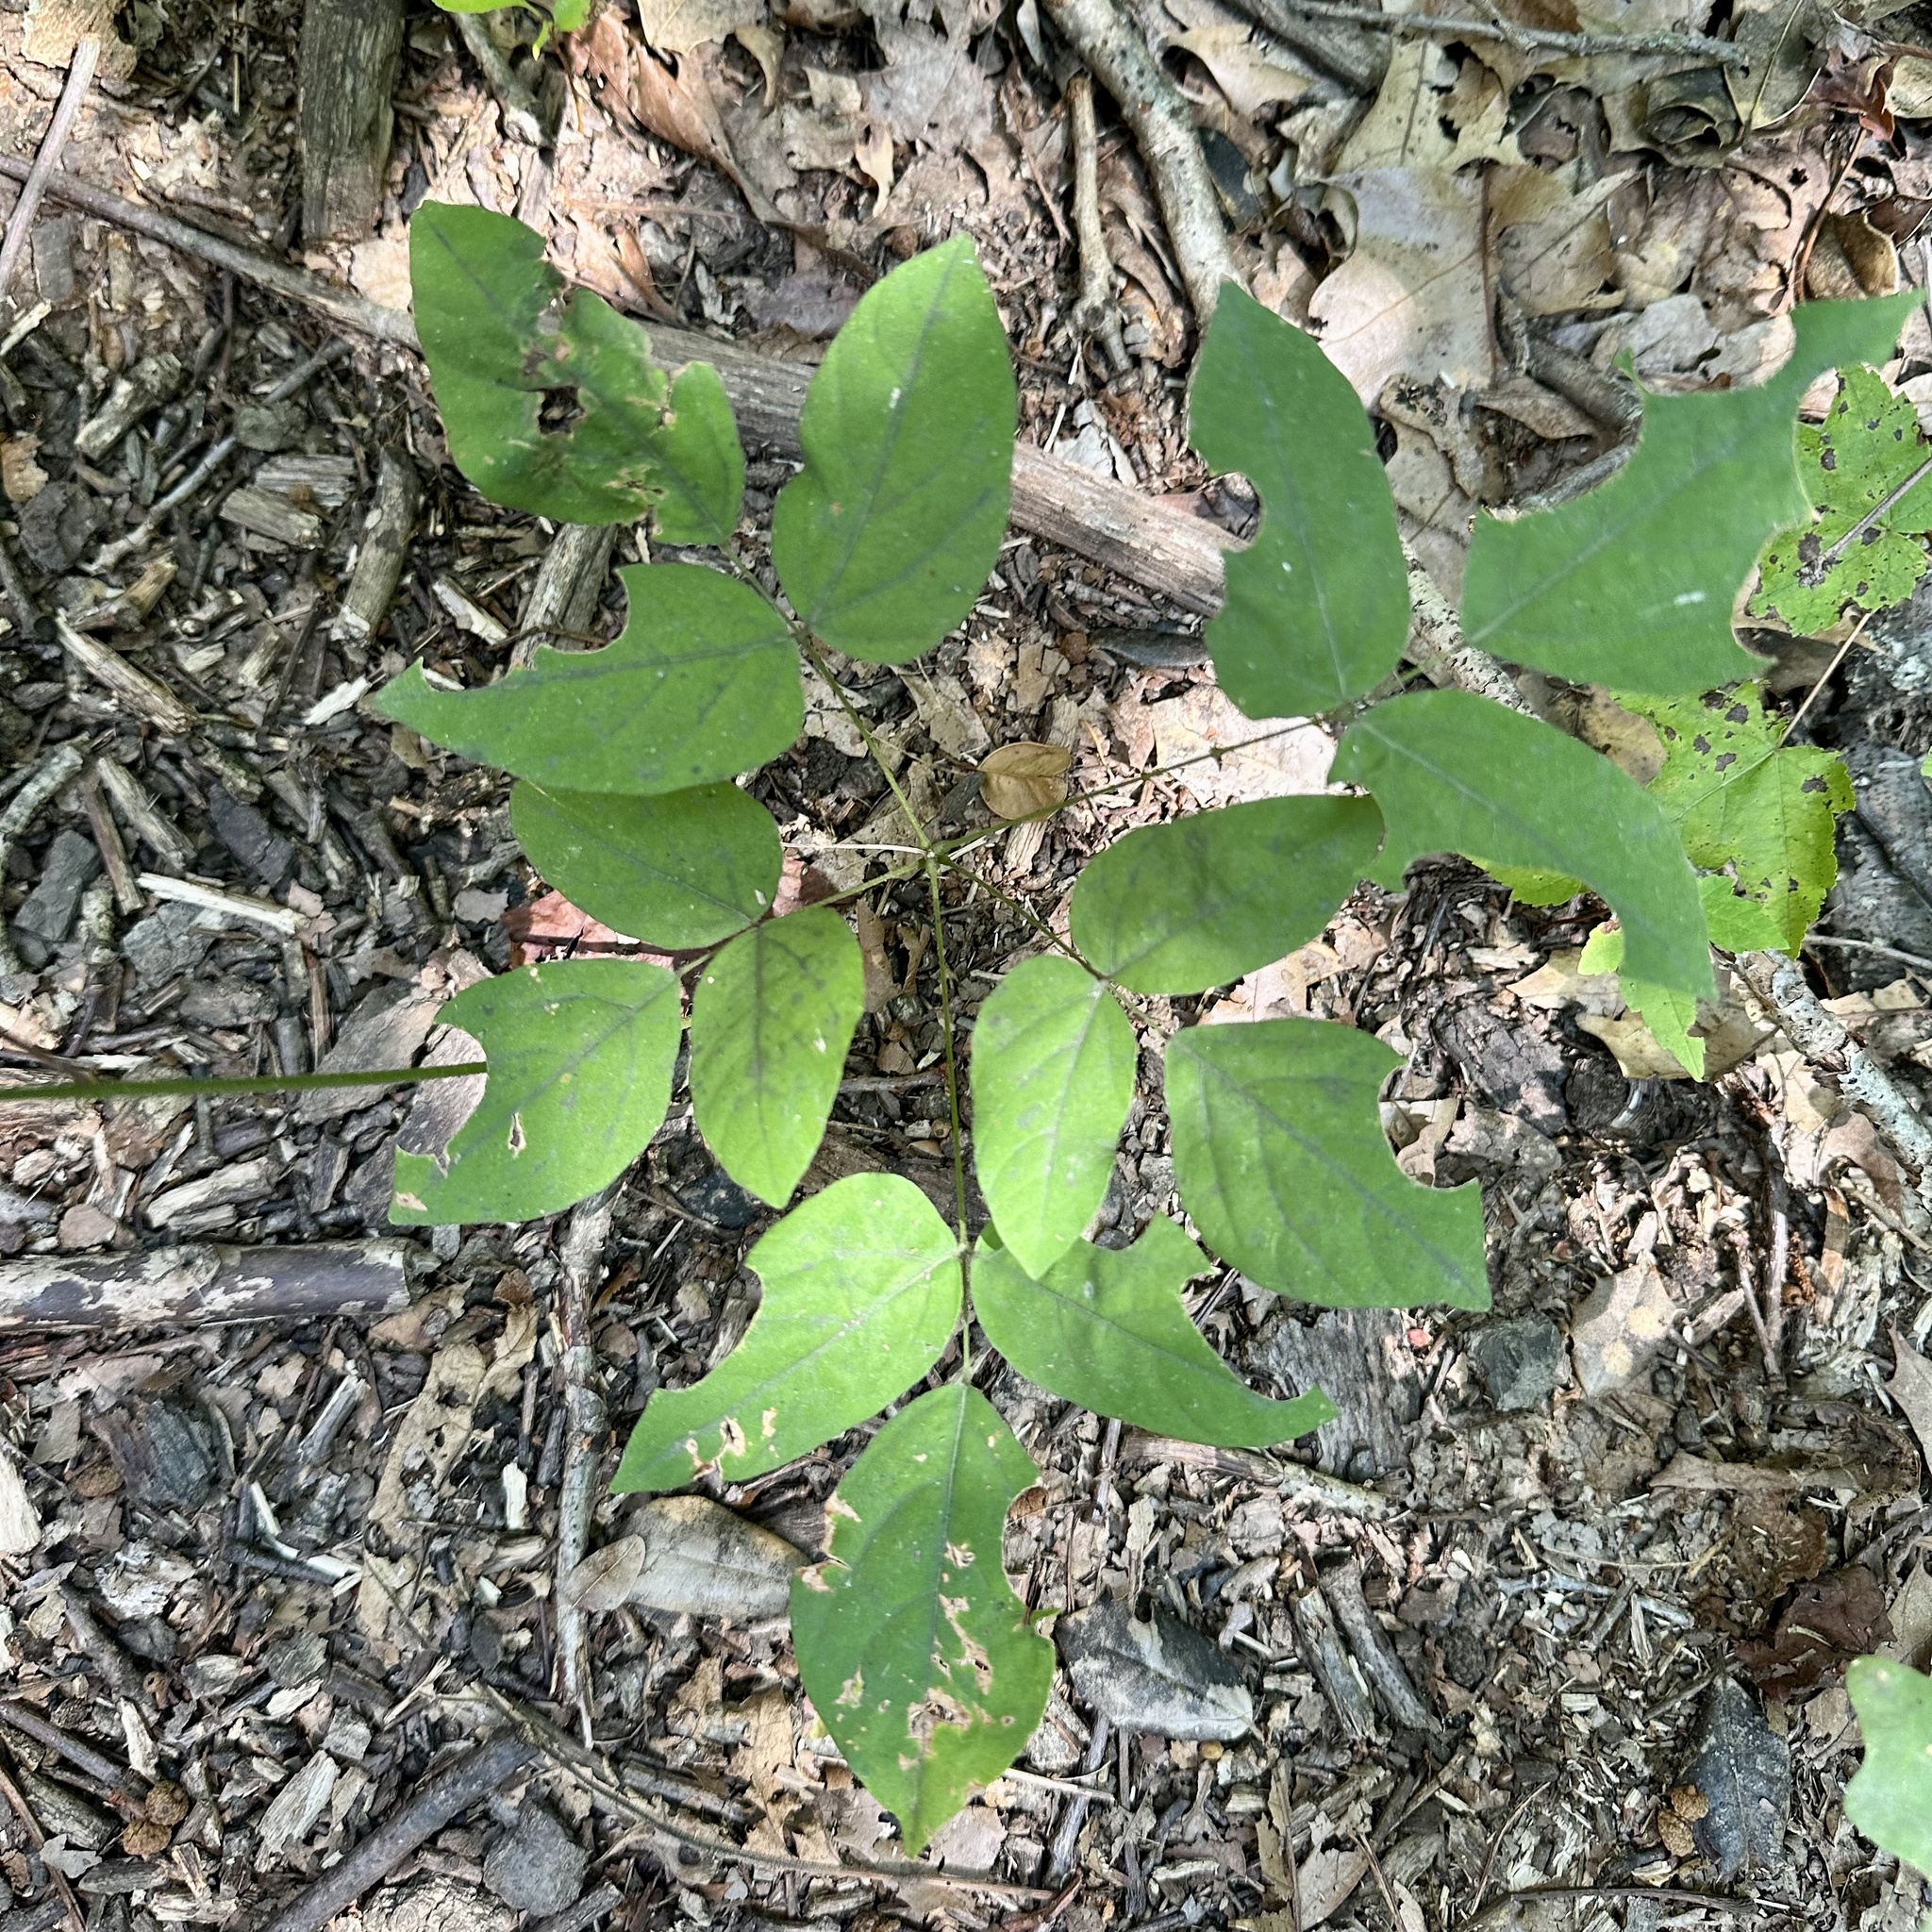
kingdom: Plantae
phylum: Tracheophyta
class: Magnoliopsida
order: Fabales
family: Fabaceae
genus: Hylodesmum
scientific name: Hylodesmum nudiflorum
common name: Bare-stemmed tick-trefoil
